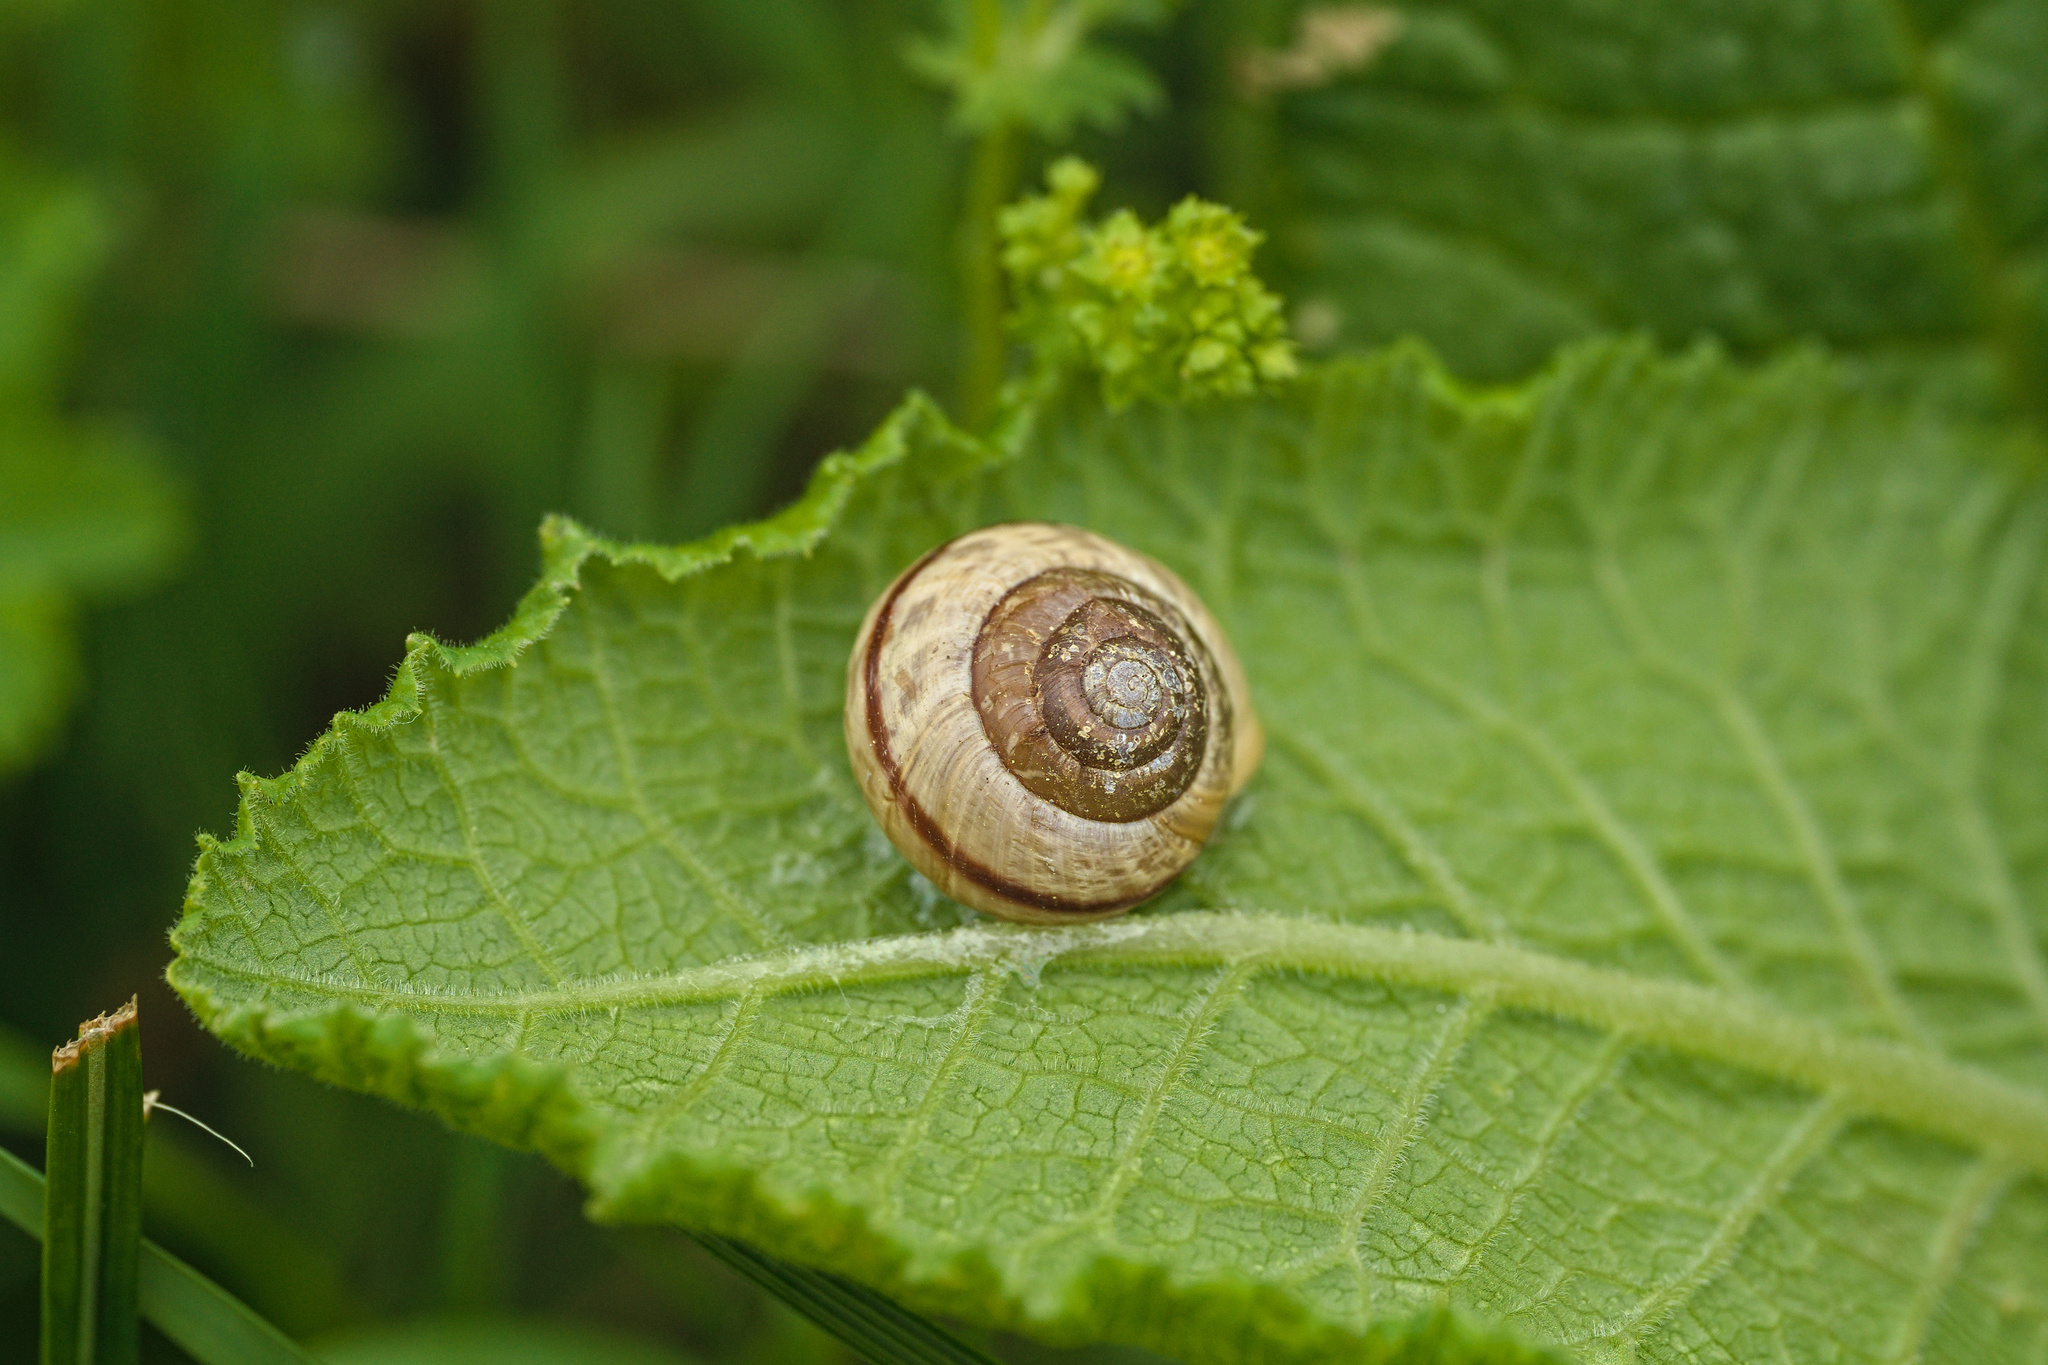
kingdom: Animalia
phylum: Mollusca
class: Gastropoda
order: Stylommatophora
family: Helicidae
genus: Arianta
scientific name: Arianta arbustorum
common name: Copse snail
